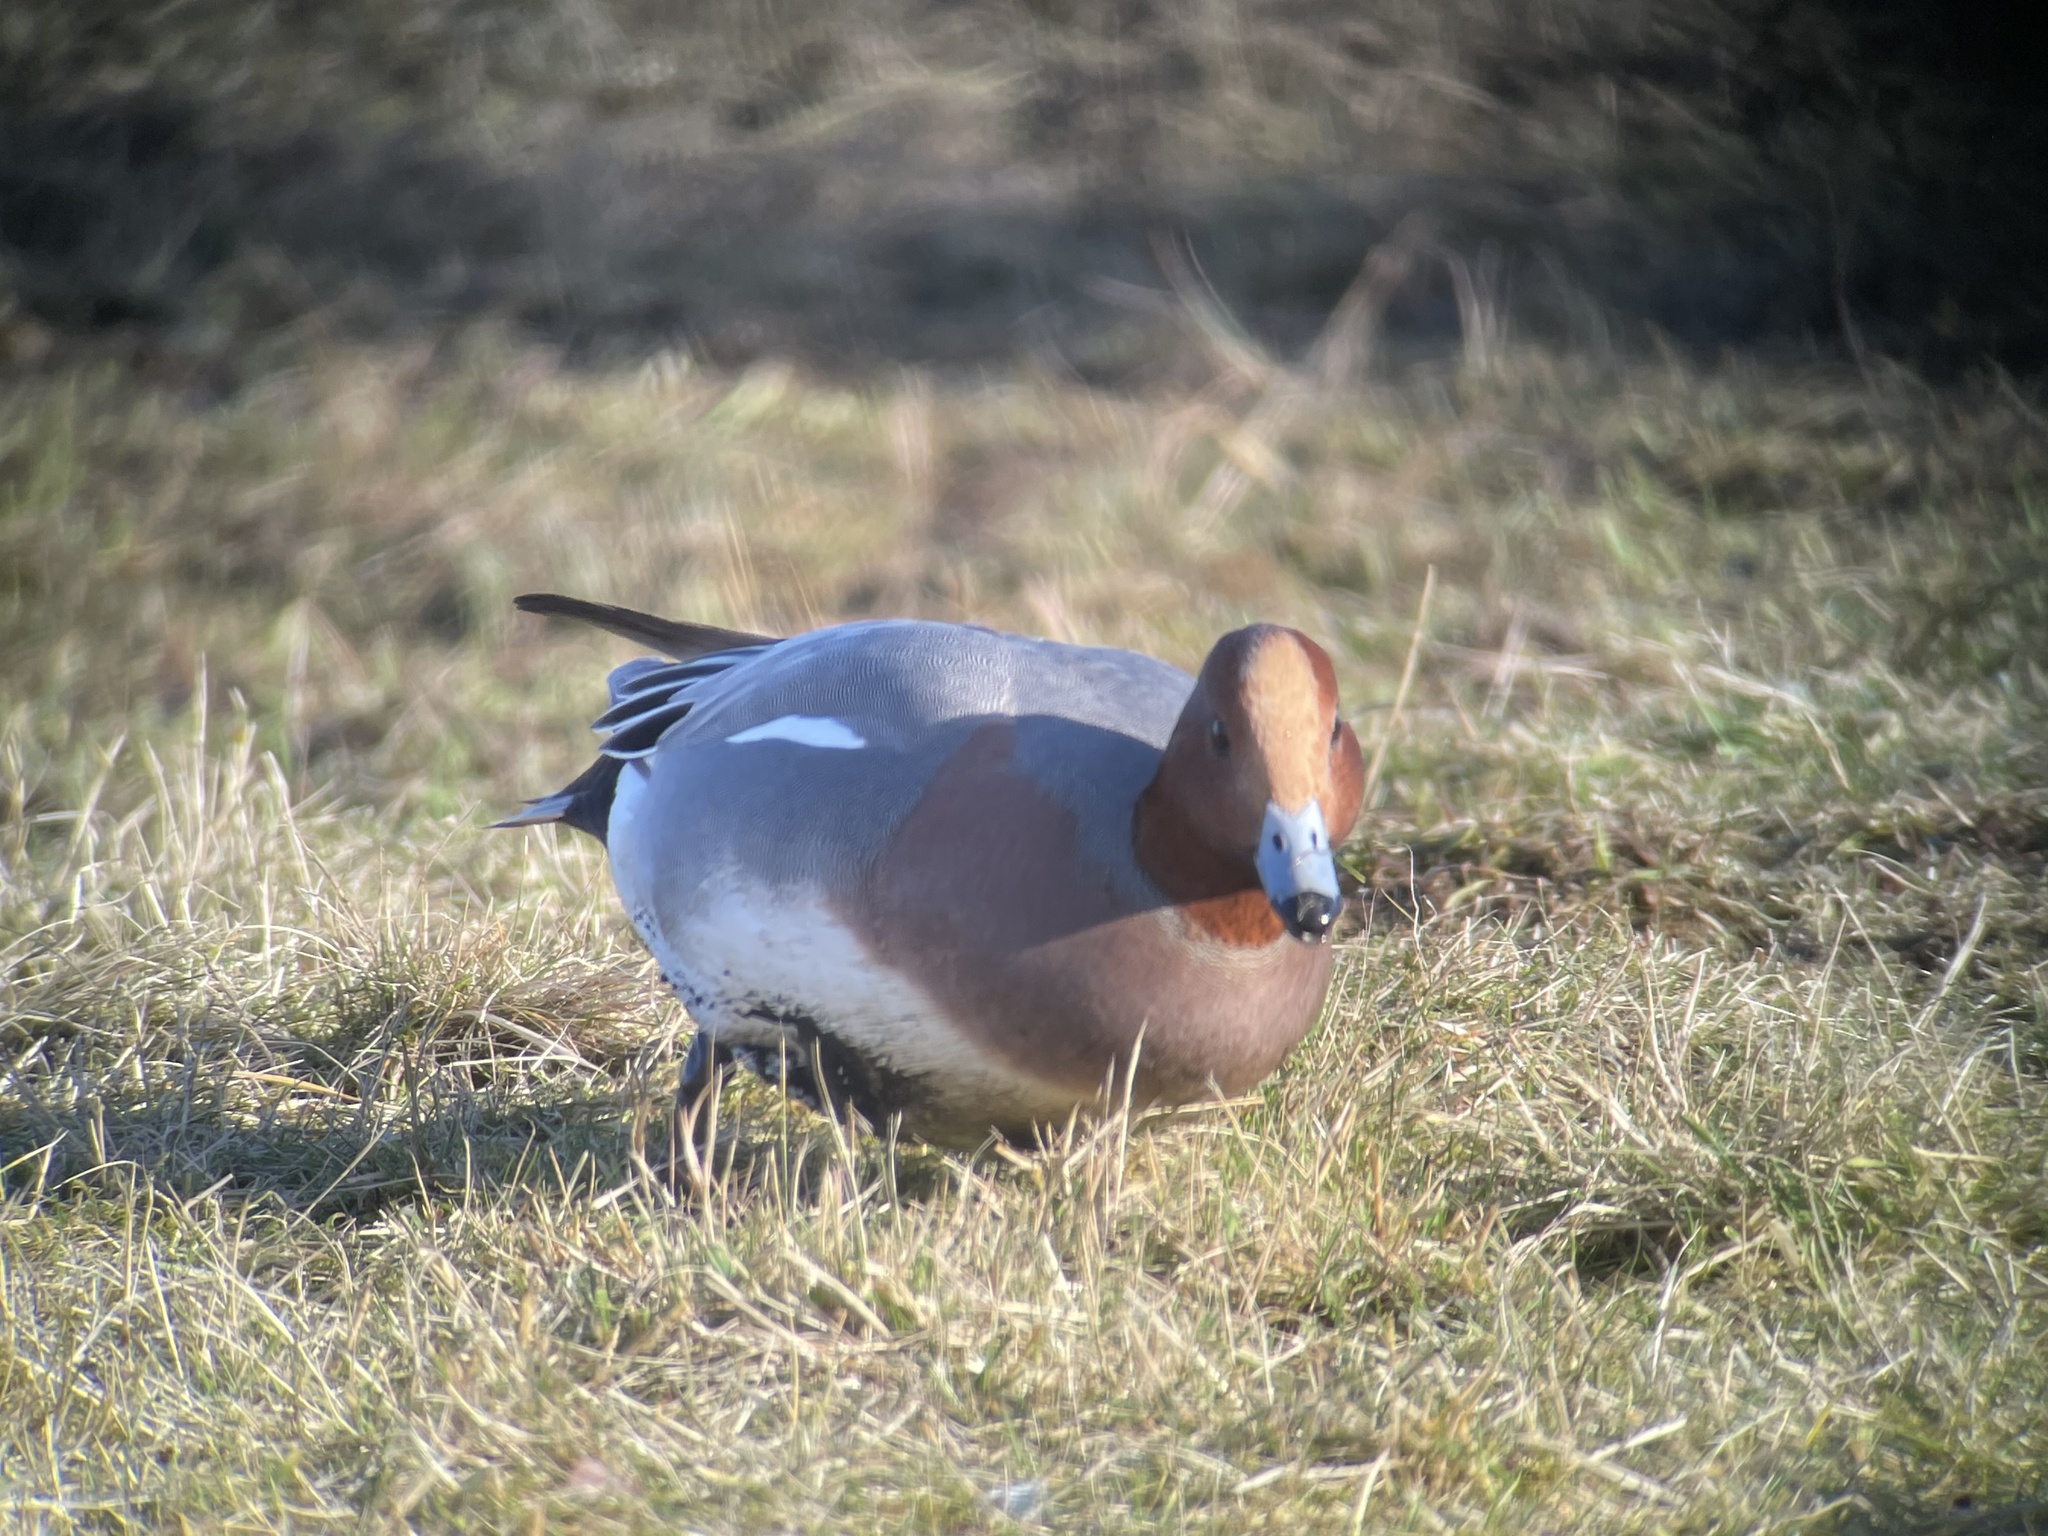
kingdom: Animalia
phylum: Chordata
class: Aves
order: Anseriformes
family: Anatidae
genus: Mareca
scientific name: Mareca penelope
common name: Eurasian wigeon
